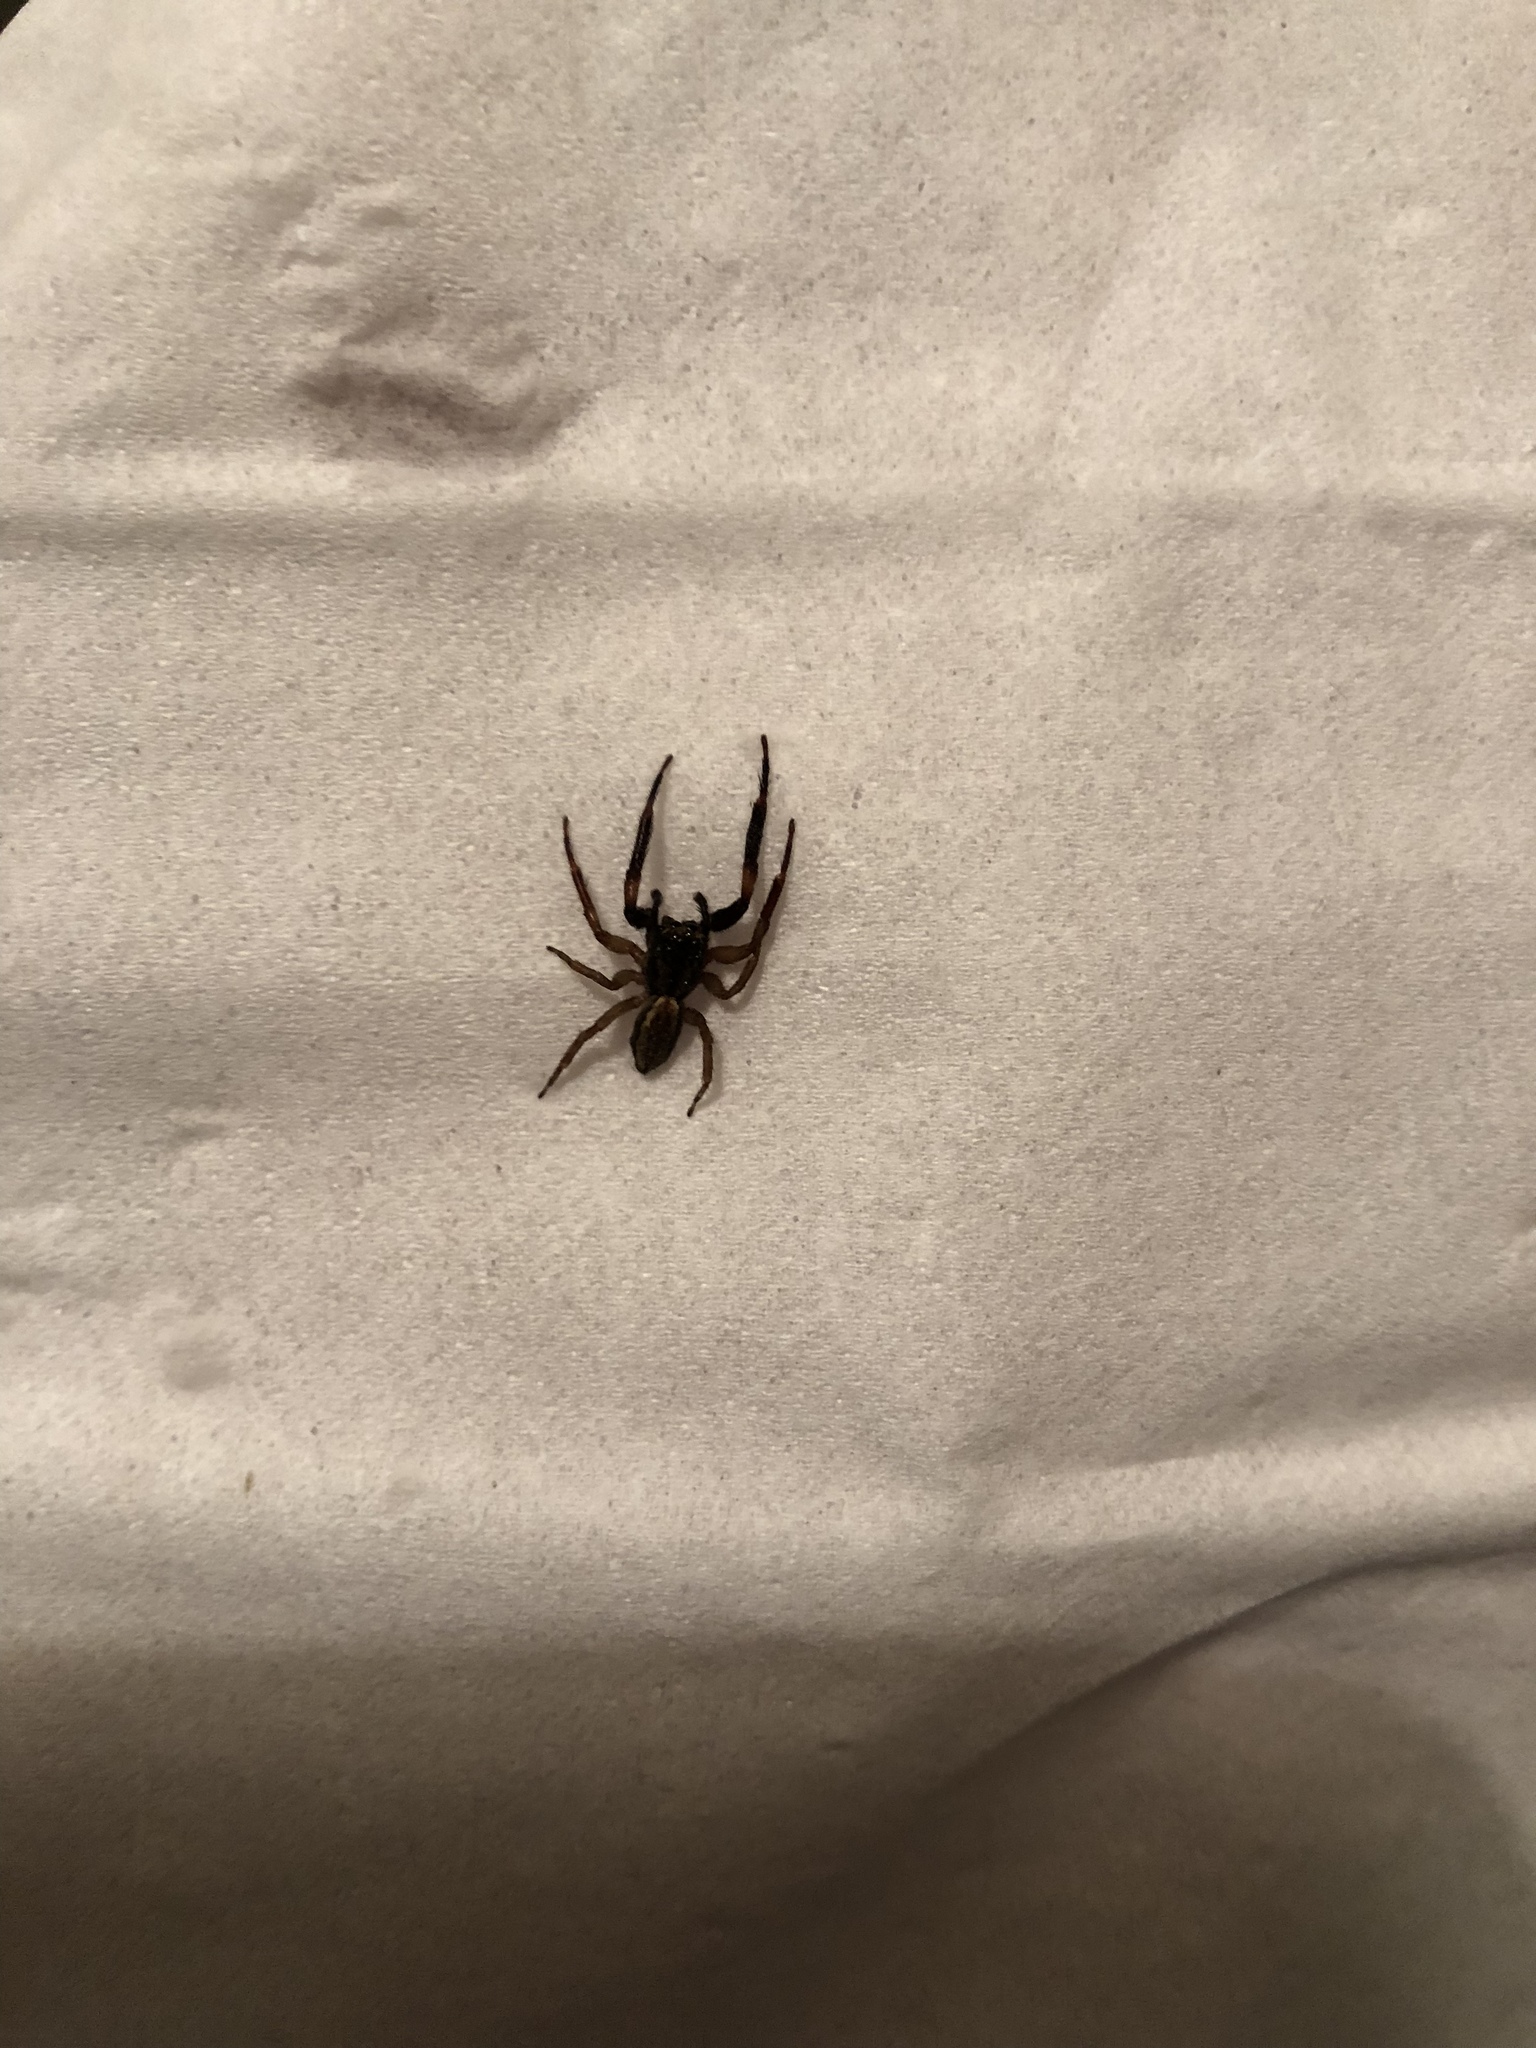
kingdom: Animalia
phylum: Arthropoda
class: Arachnida
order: Araneae
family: Salticidae
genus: Trite
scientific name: Trite auricoma
